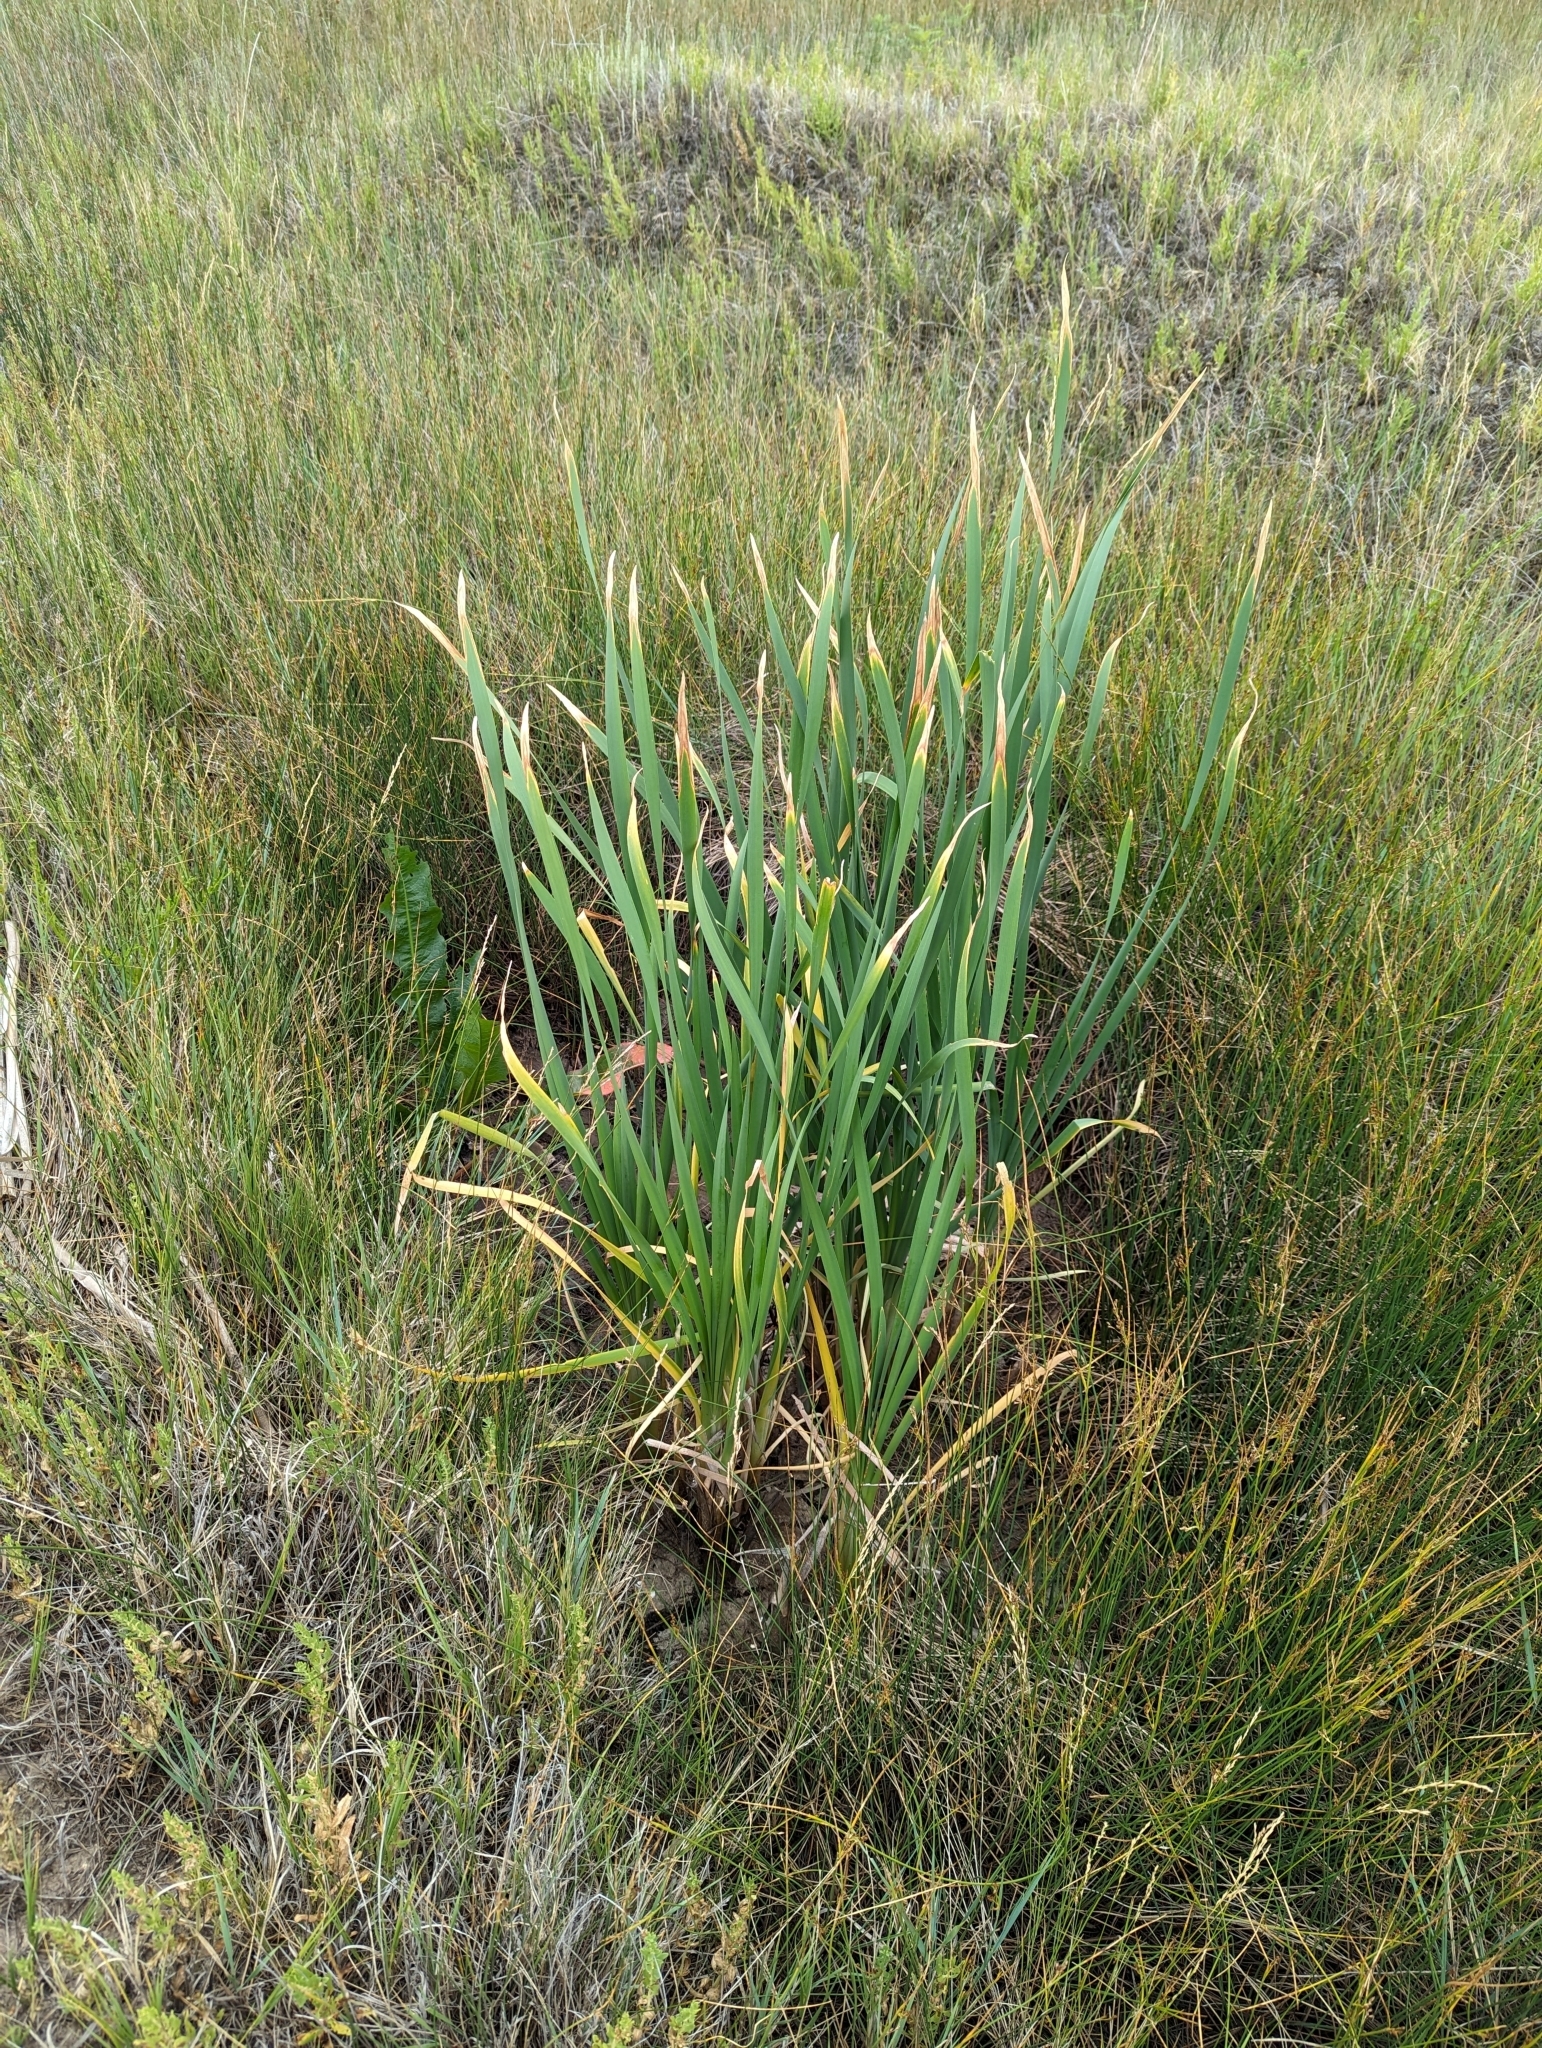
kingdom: Plantae
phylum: Tracheophyta
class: Liliopsida
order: Poales
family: Typhaceae
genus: Typha
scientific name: Typha latifolia
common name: Broadleaf cattail
